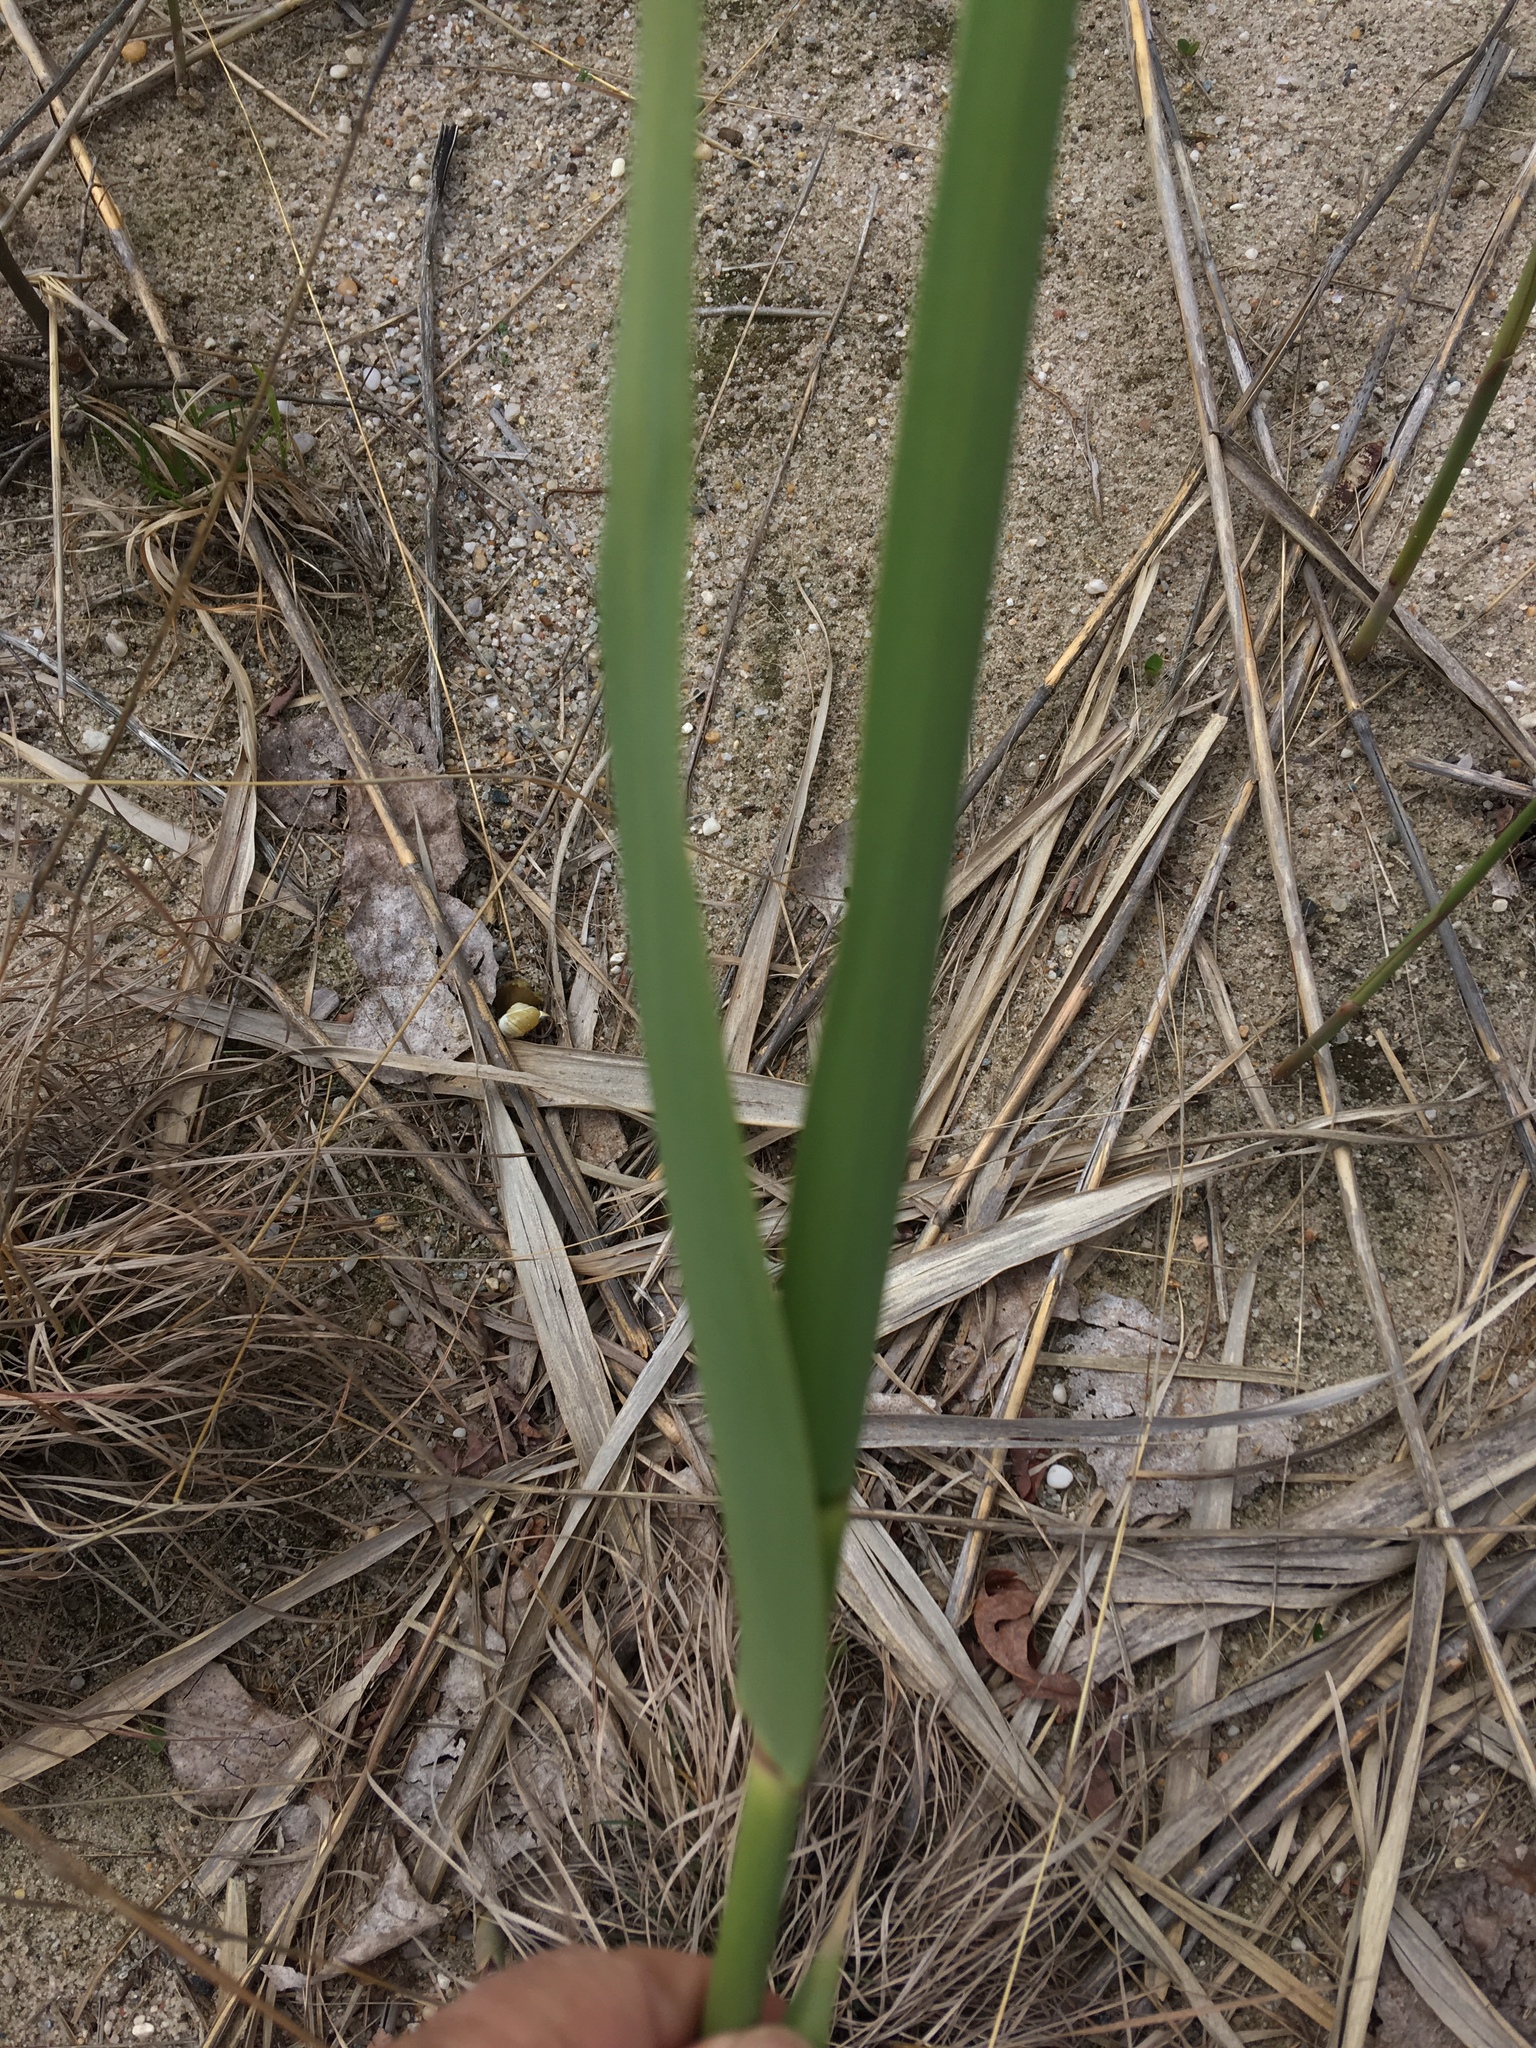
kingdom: Plantae
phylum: Tracheophyta
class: Liliopsida
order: Poales
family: Poaceae
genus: Phragmites
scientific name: Phragmites australis
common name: Common reed
